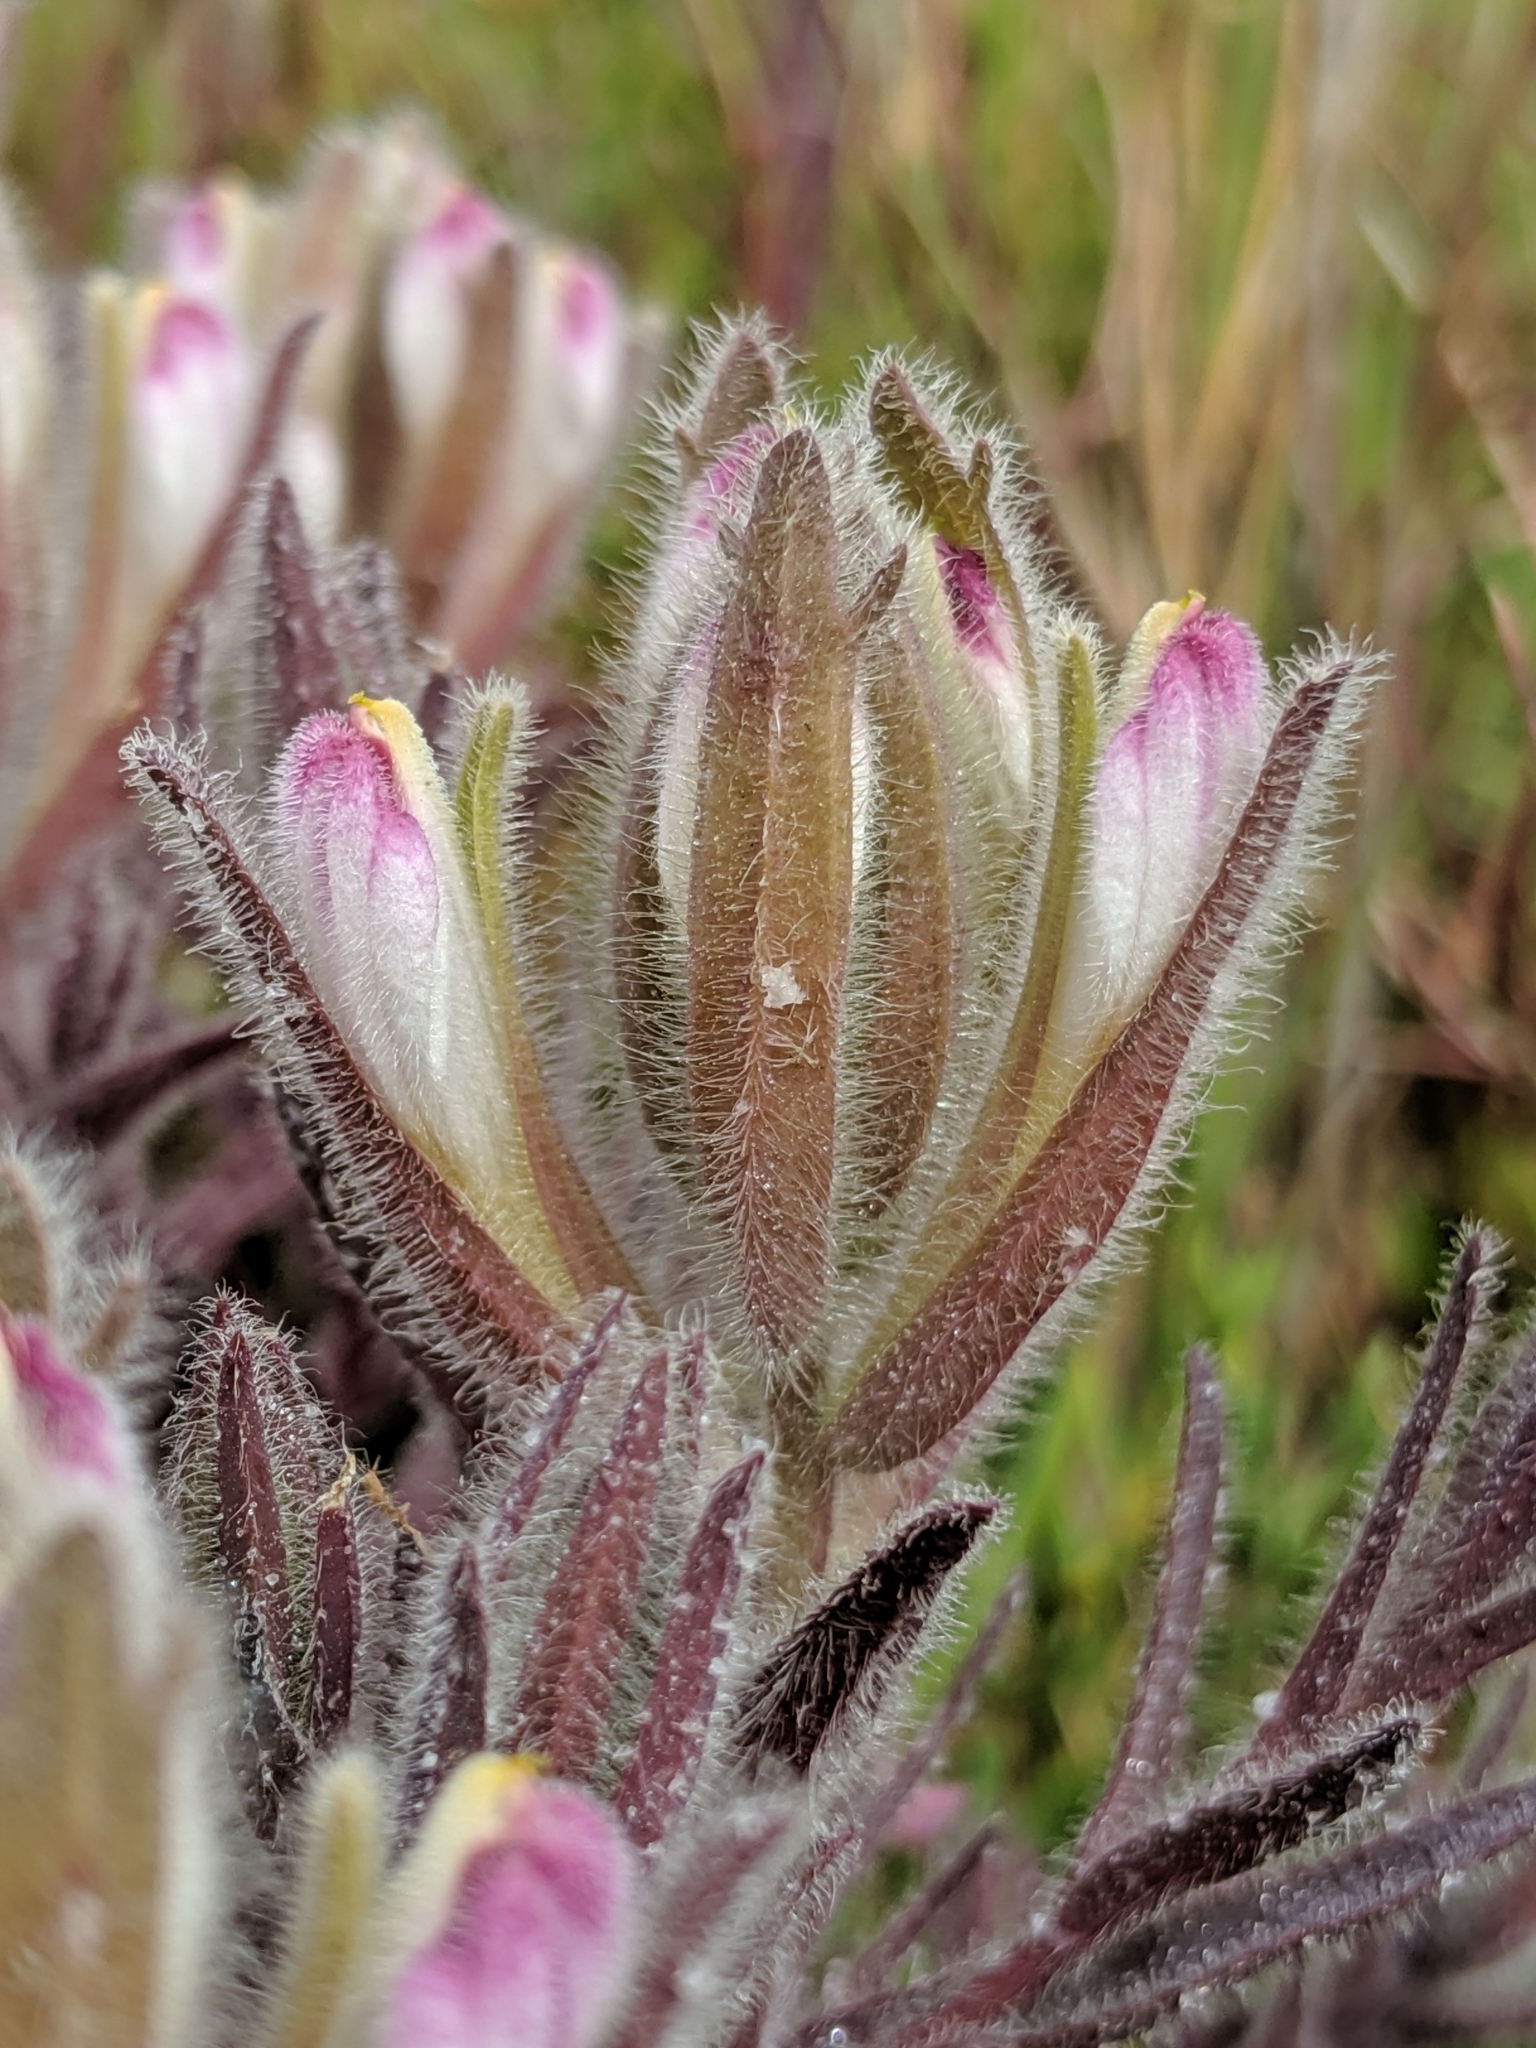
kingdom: Plantae
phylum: Tracheophyta
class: Magnoliopsida
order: Lamiales
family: Orobanchaceae
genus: Chloropyron
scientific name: Chloropyron maritimum
